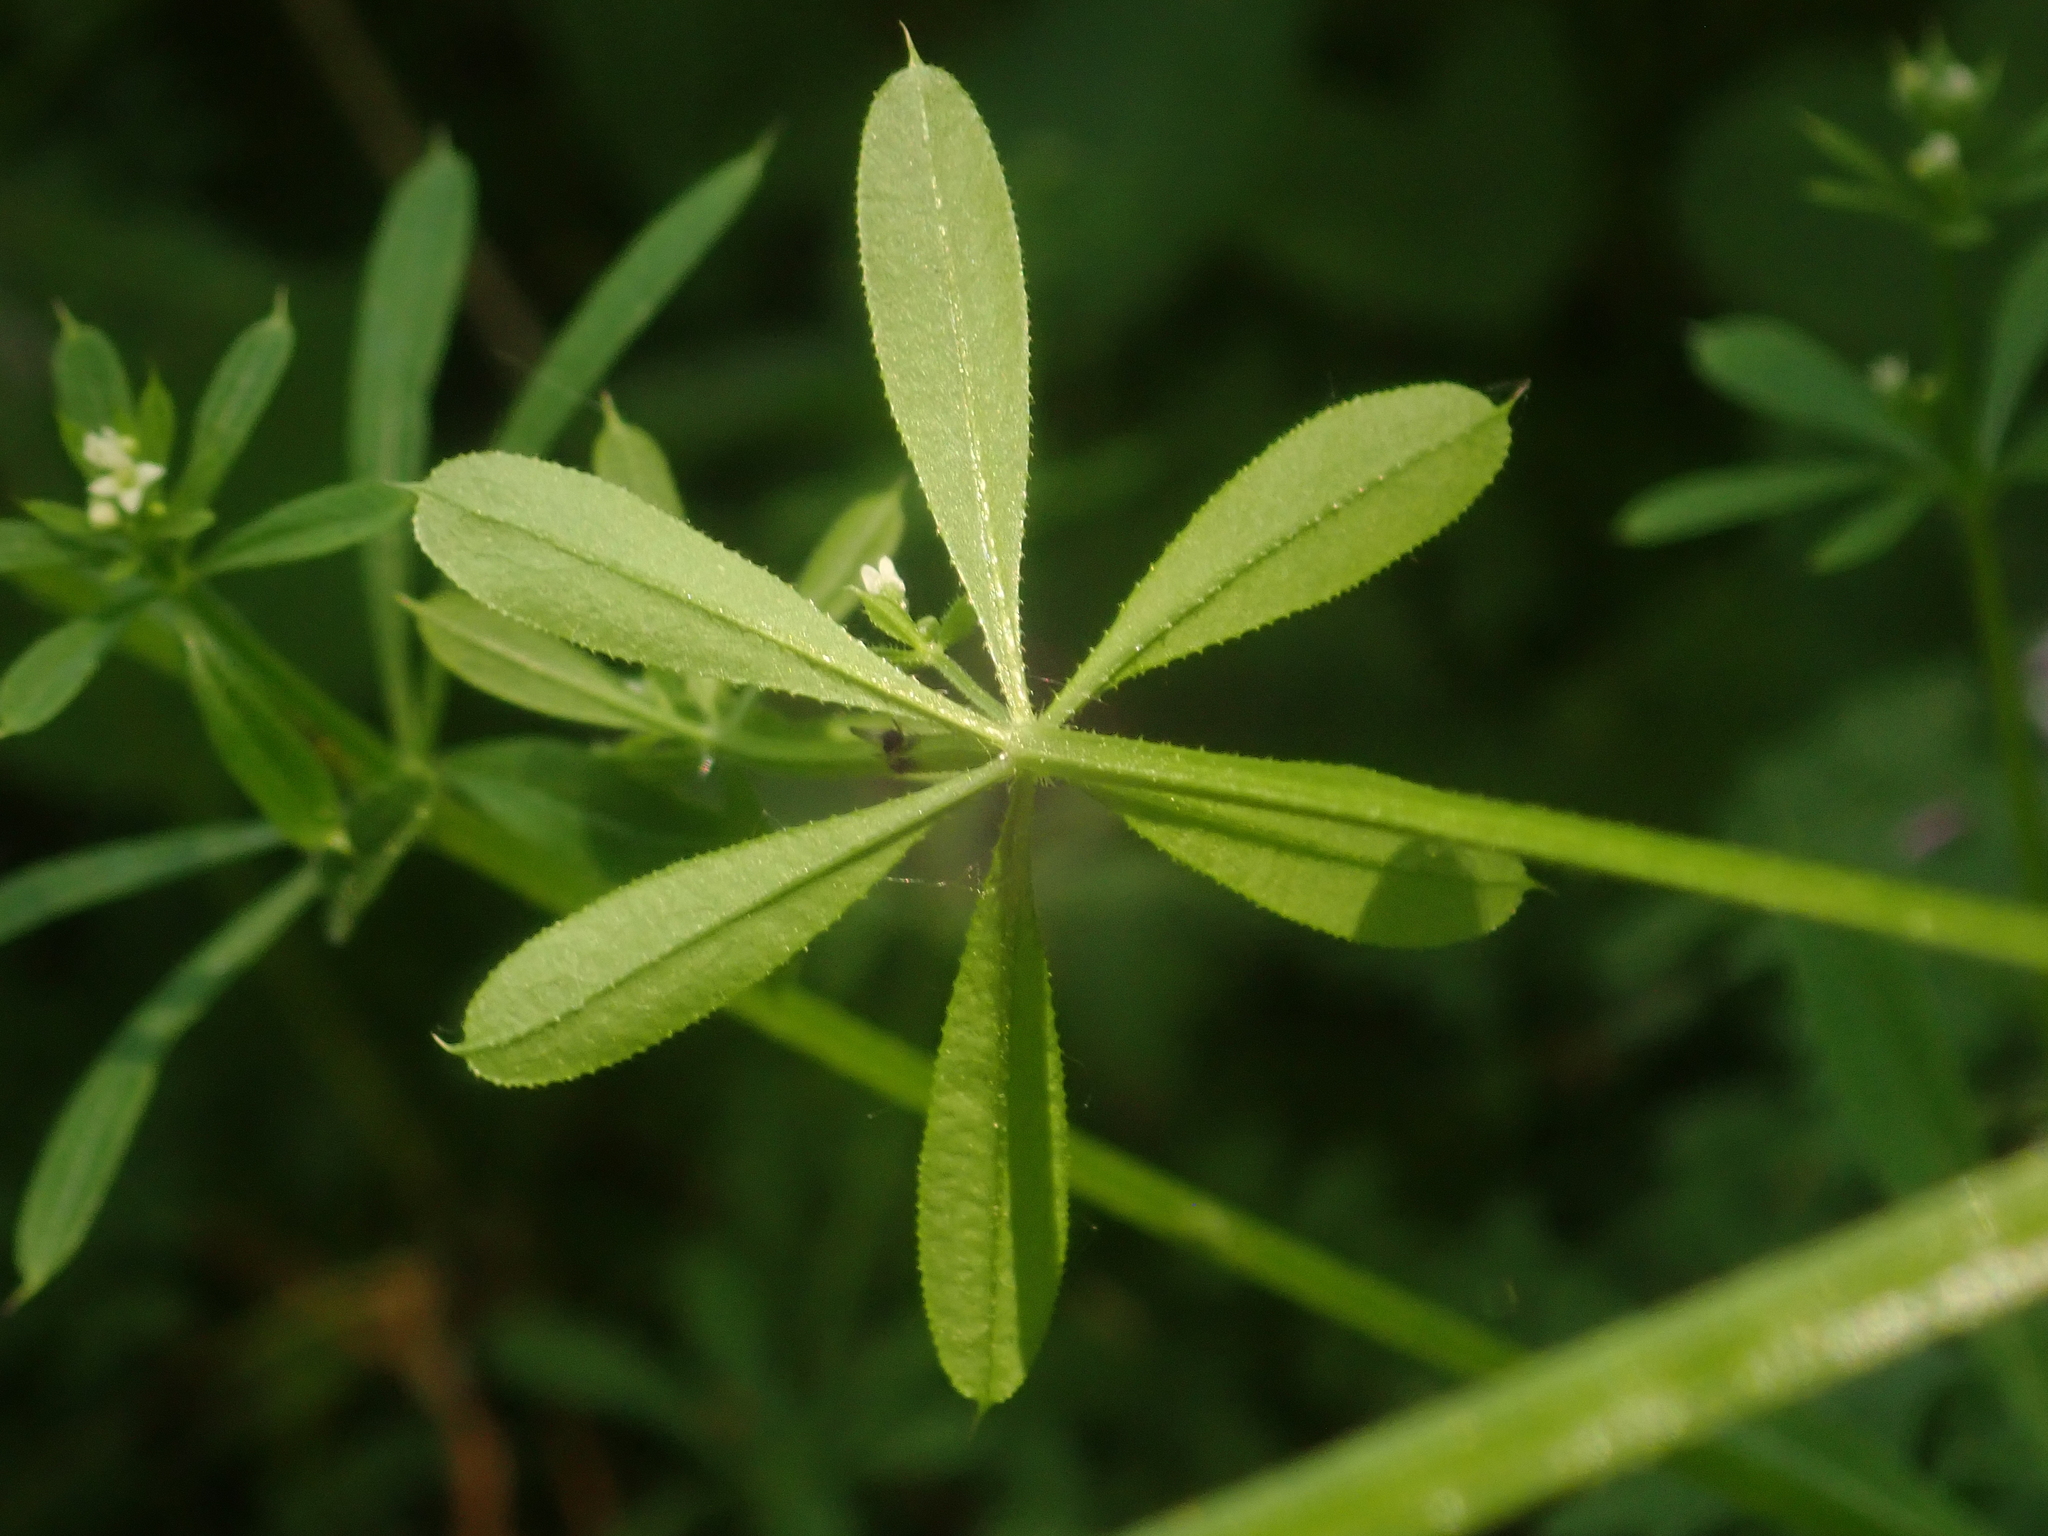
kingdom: Plantae
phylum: Tracheophyta
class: Magnoliopsida
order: Gentianales
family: Rubiaceae
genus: Galium
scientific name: Galium aparine
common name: Cleavers
